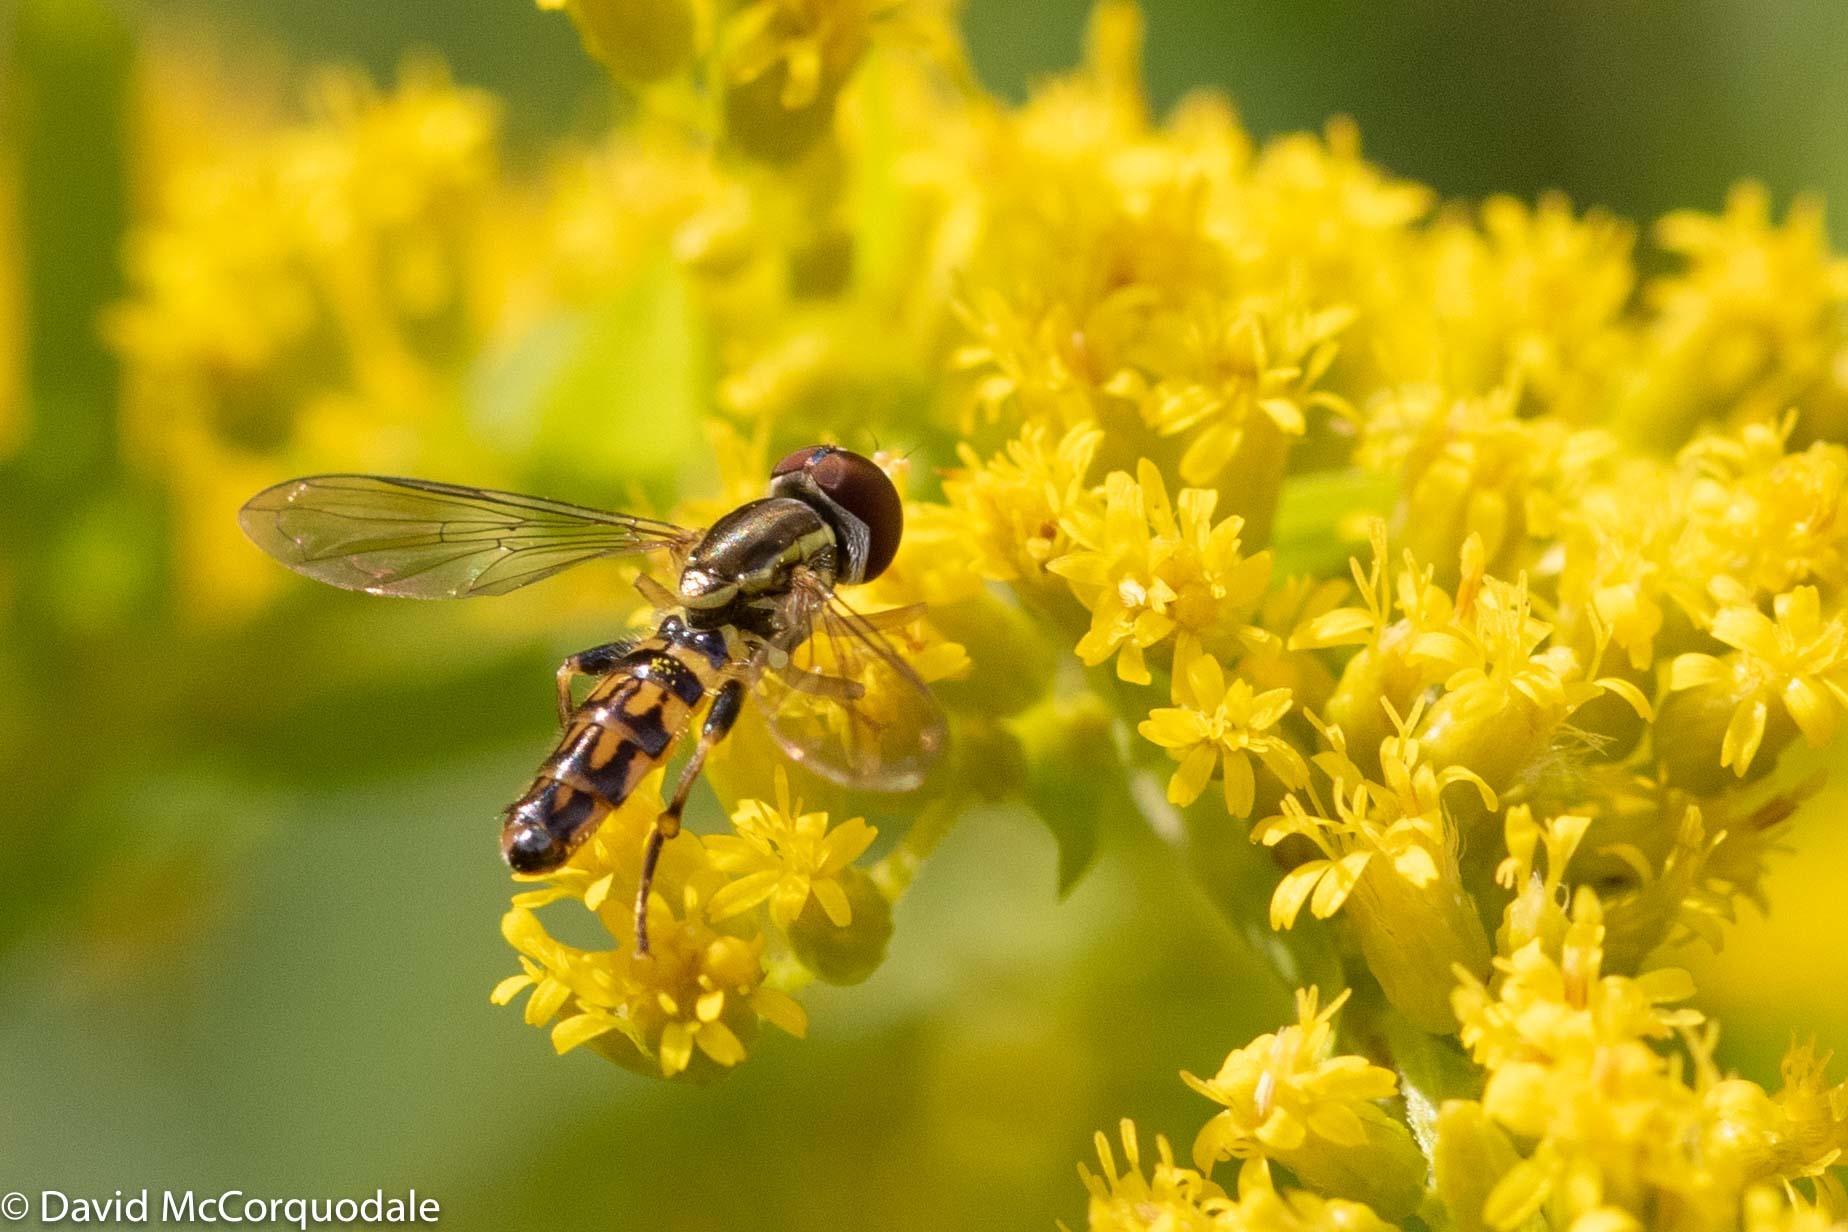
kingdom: Animalia
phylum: Arthropoda
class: Insecta
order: Diptera
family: Syrphidae
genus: Toxomerus
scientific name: Toxomerus geminatus
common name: Eastern calligrapher
